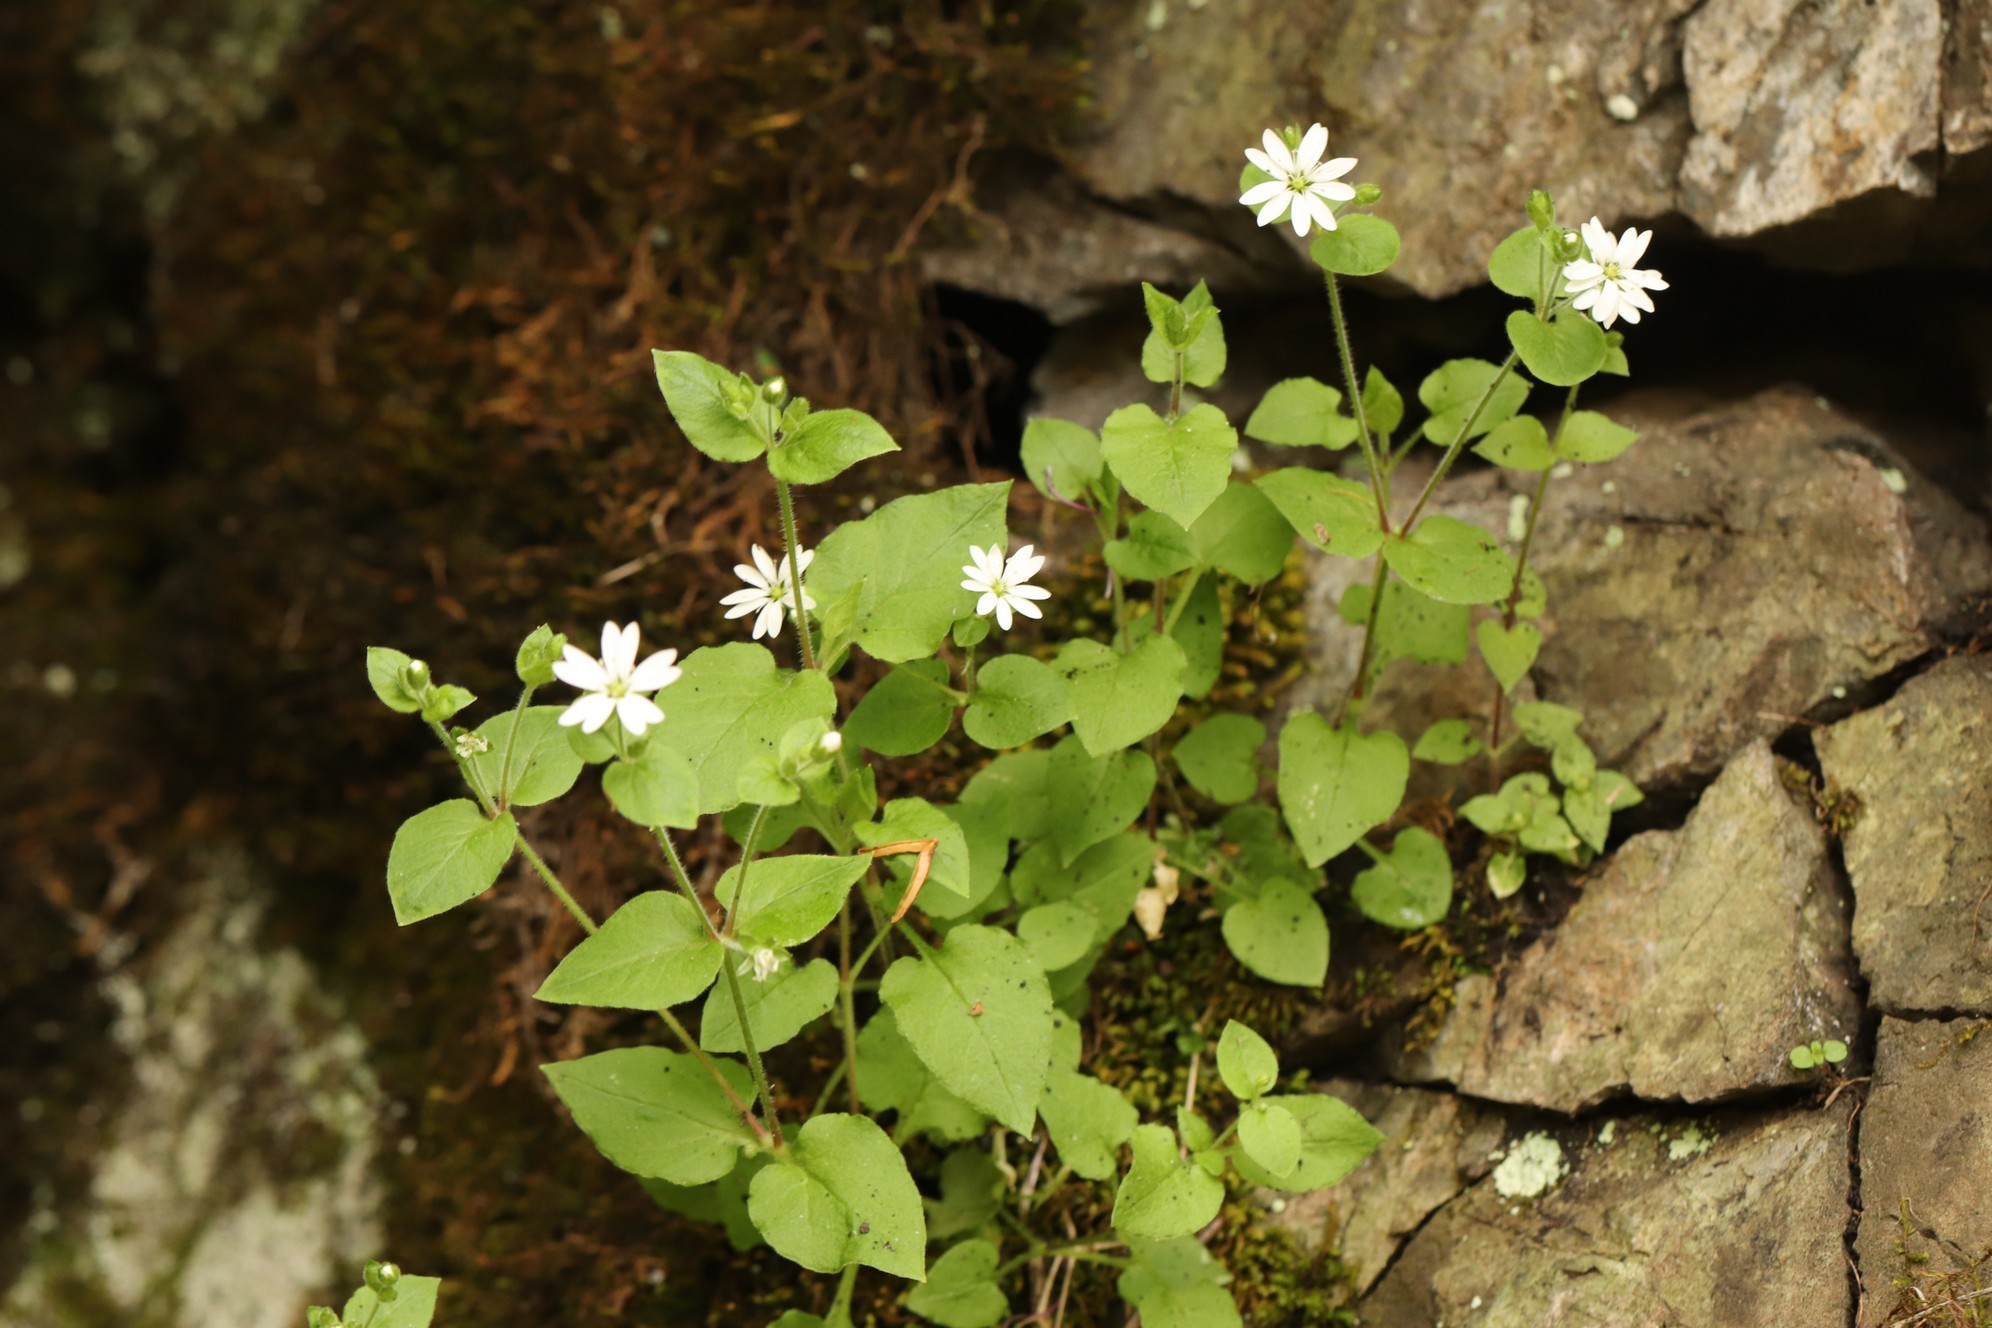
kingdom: Plantae
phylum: Tracheophyta
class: Magnoliopsida
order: Caryophyllales
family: Caryophyllaceae
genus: Stellaria
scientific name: Stellaria bungeana
